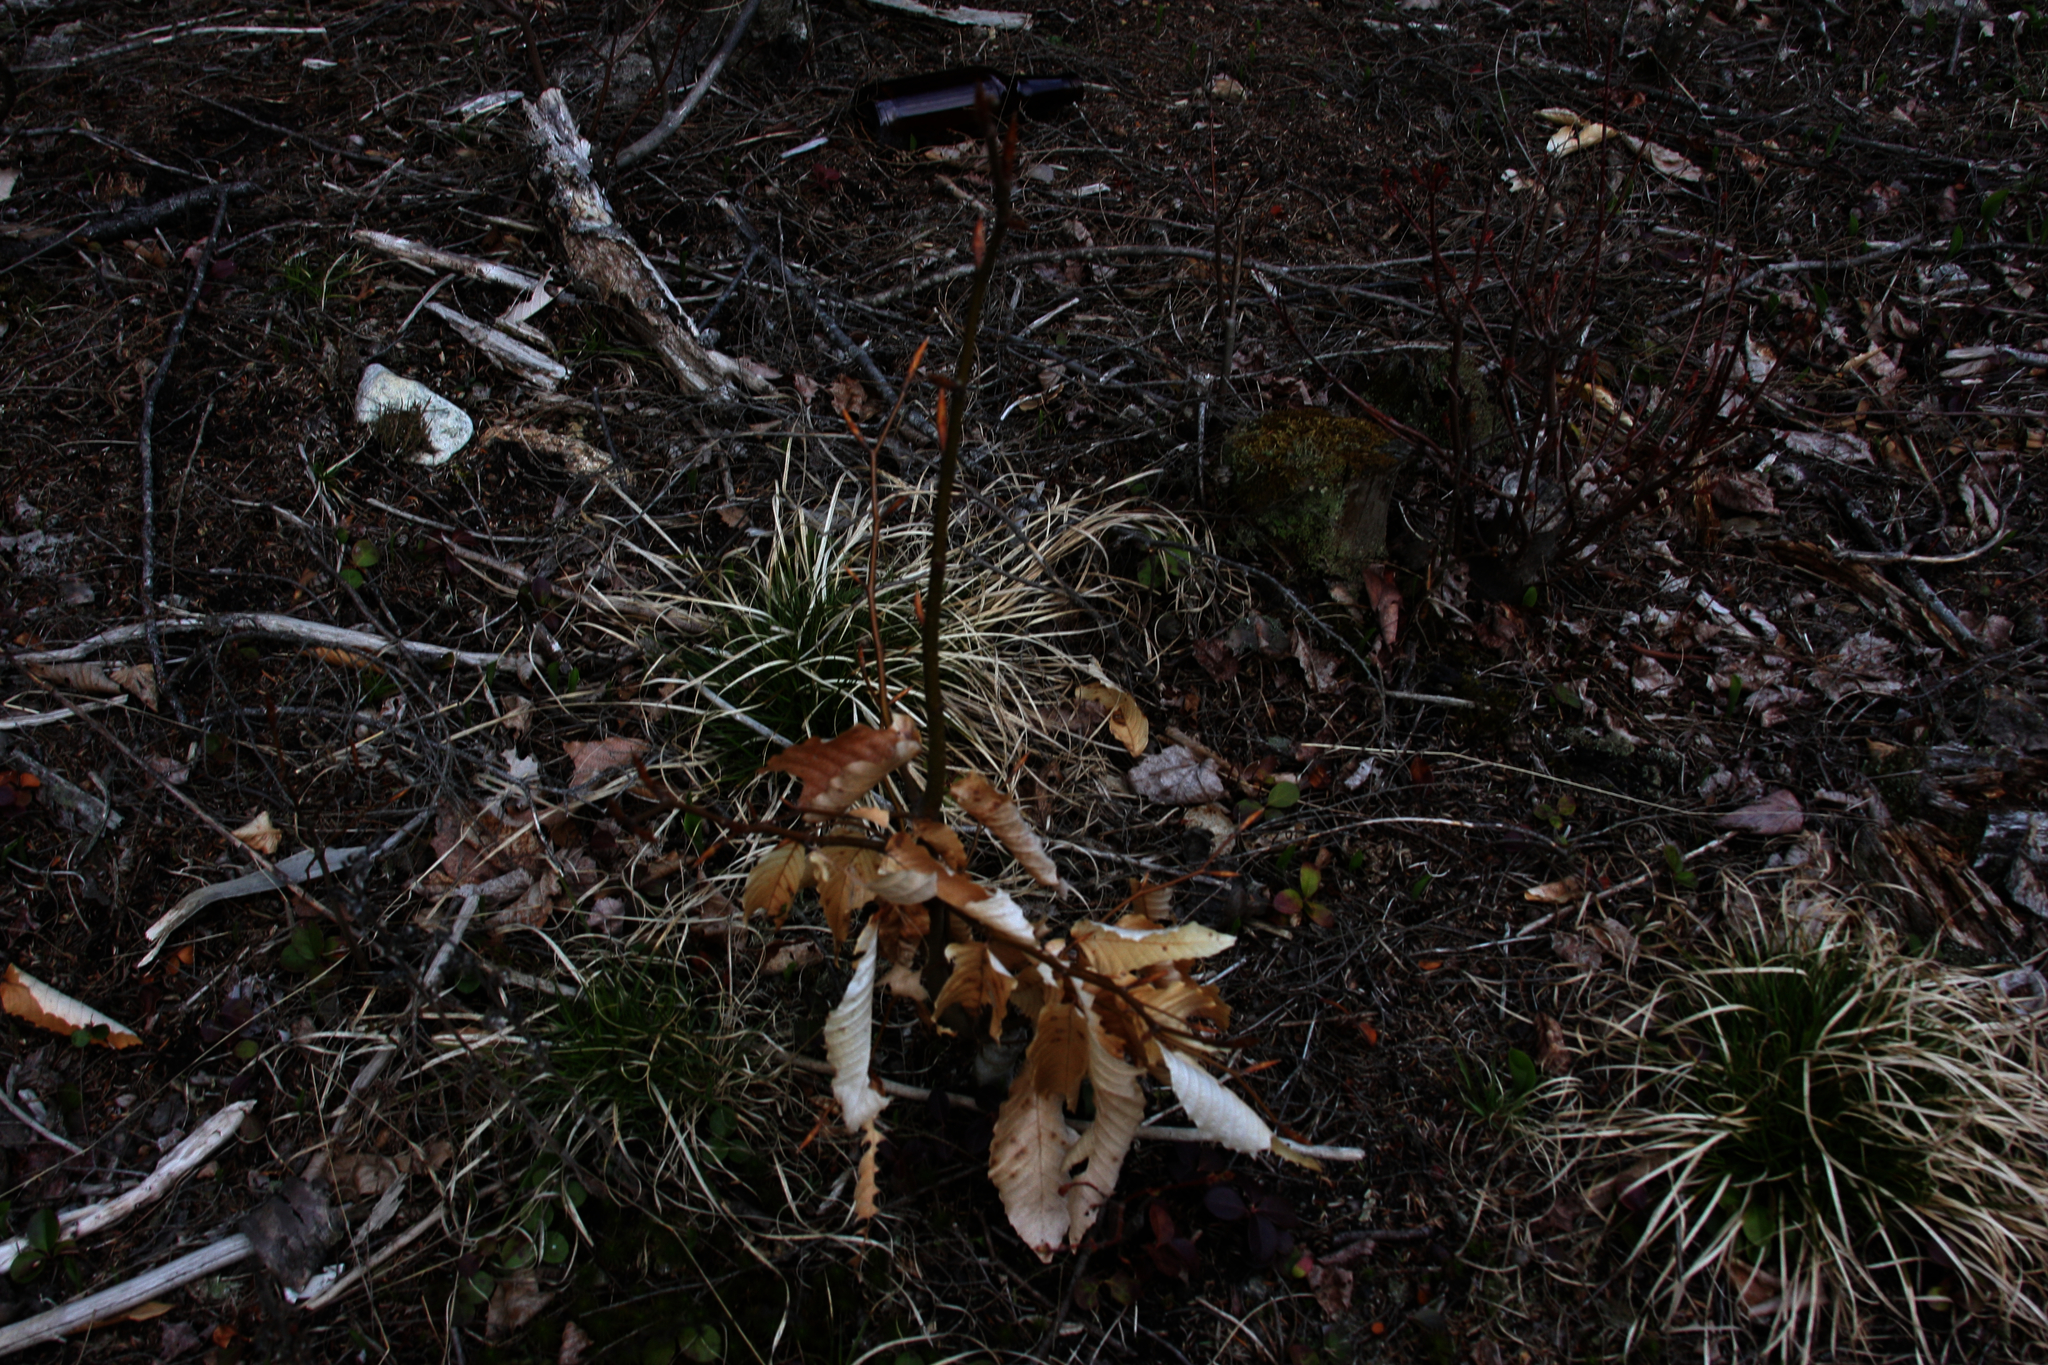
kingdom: Plantae
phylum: Tracheophyta
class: Magnoliopsida
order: Fagales
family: Fagaceae
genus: Fagus
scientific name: Fagus grandifolia
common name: American beech
